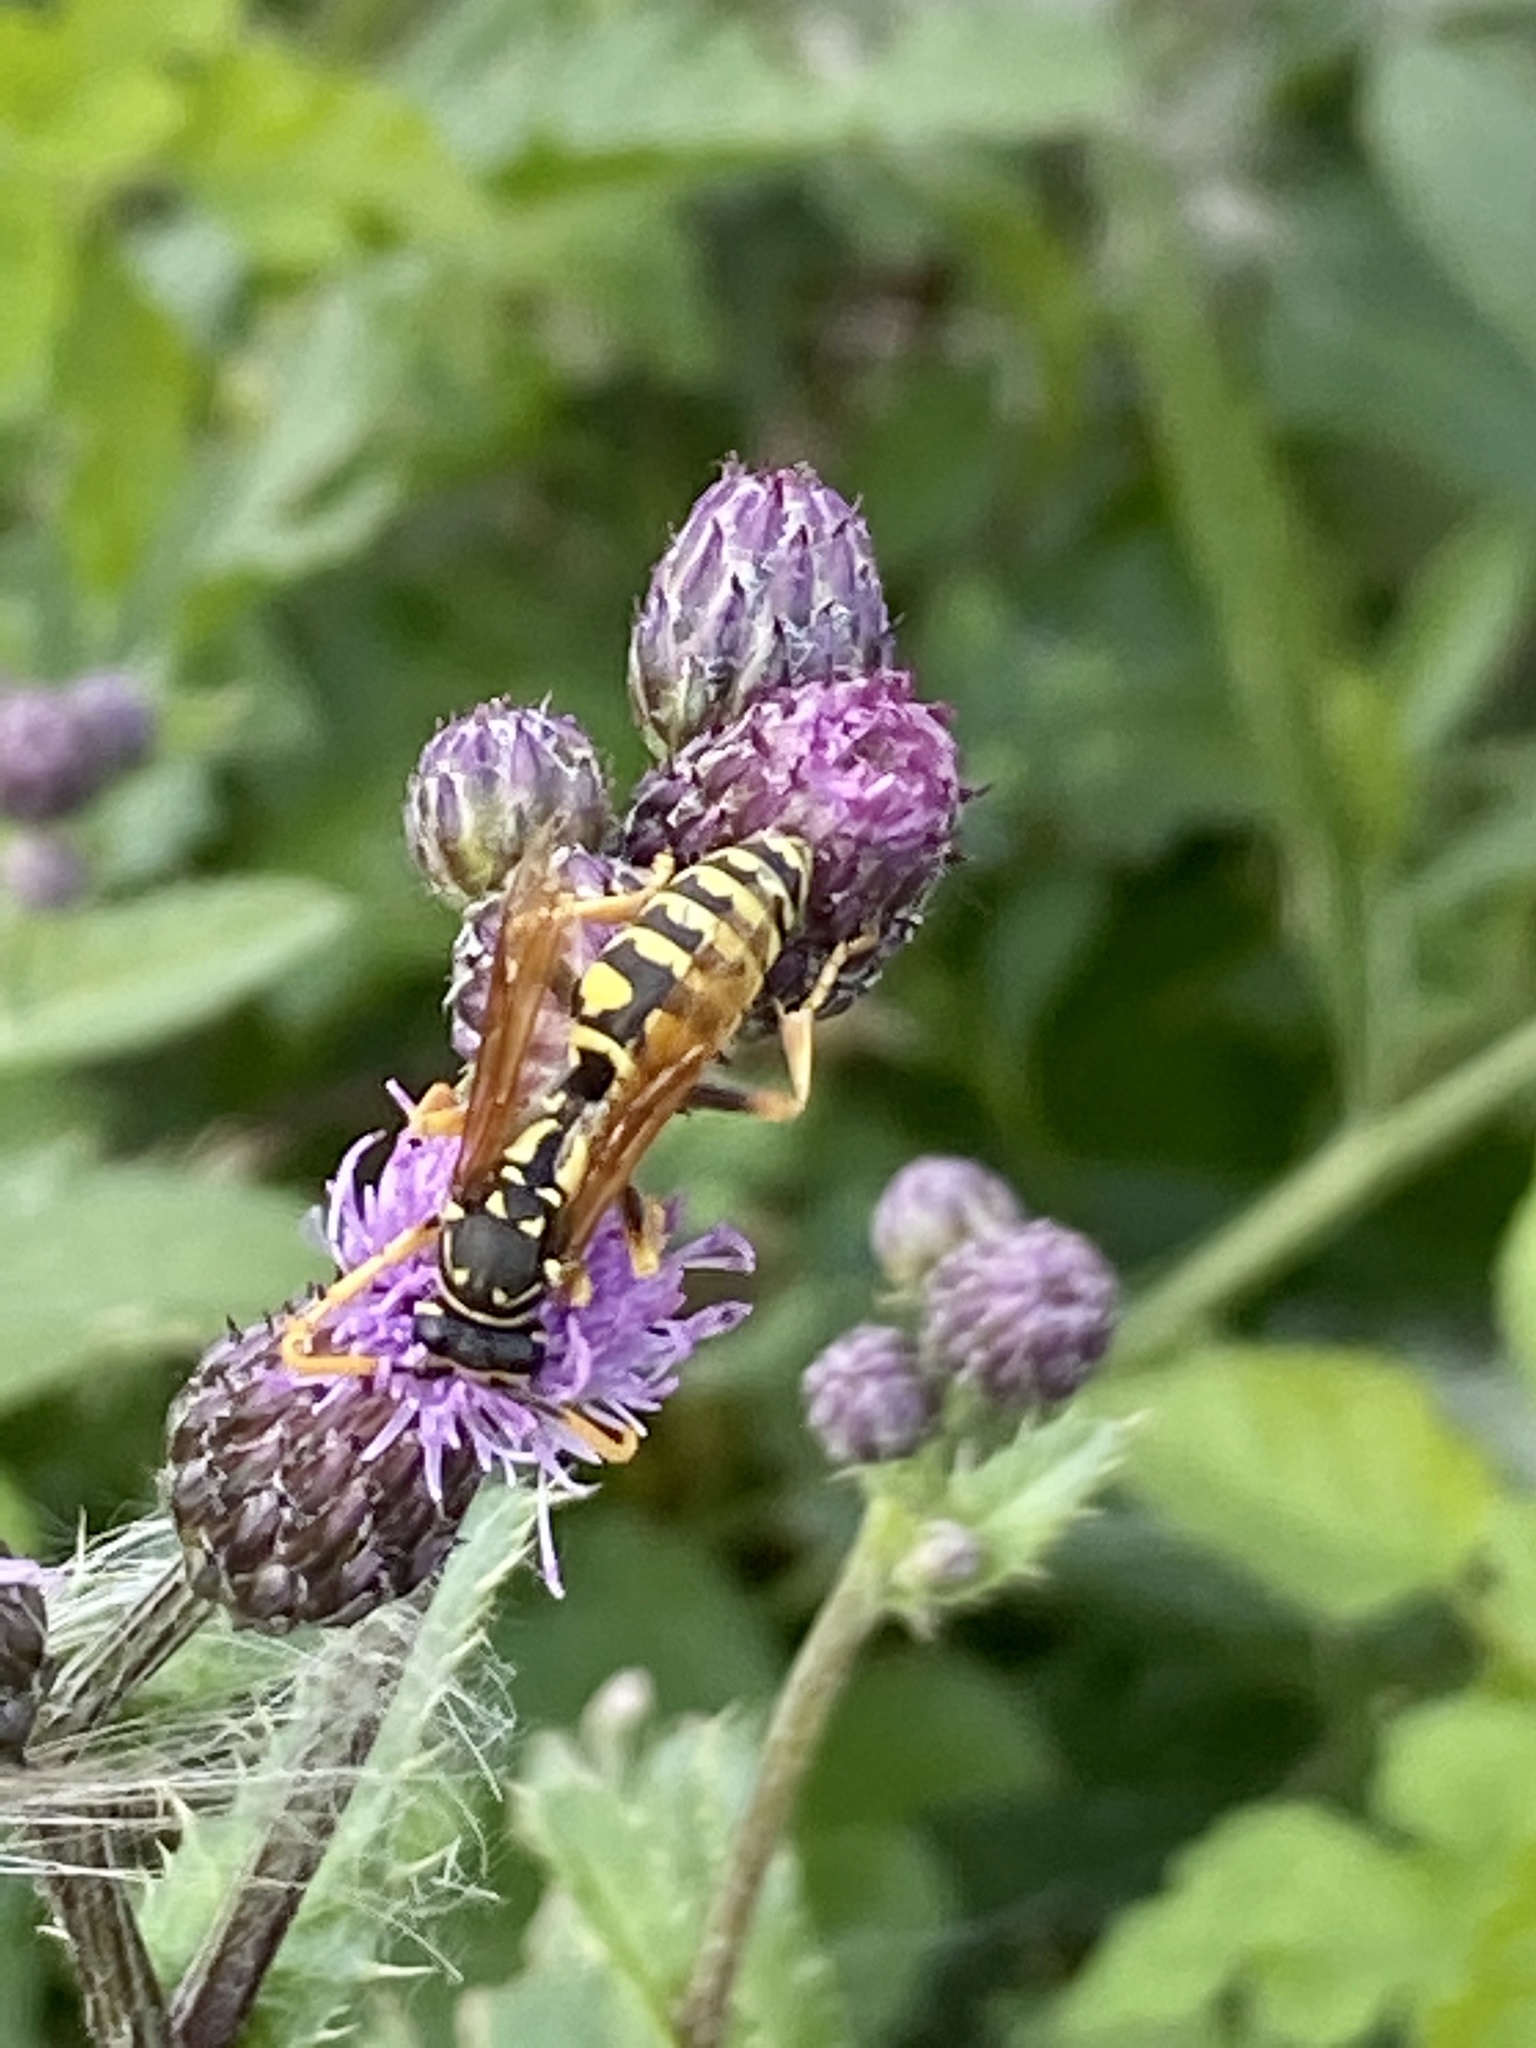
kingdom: Animalia
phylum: Arthropoda
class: Insecta
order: Hymenoptera
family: Eumenidae
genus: Polistes
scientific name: Polistes dominula
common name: Paper wasp
